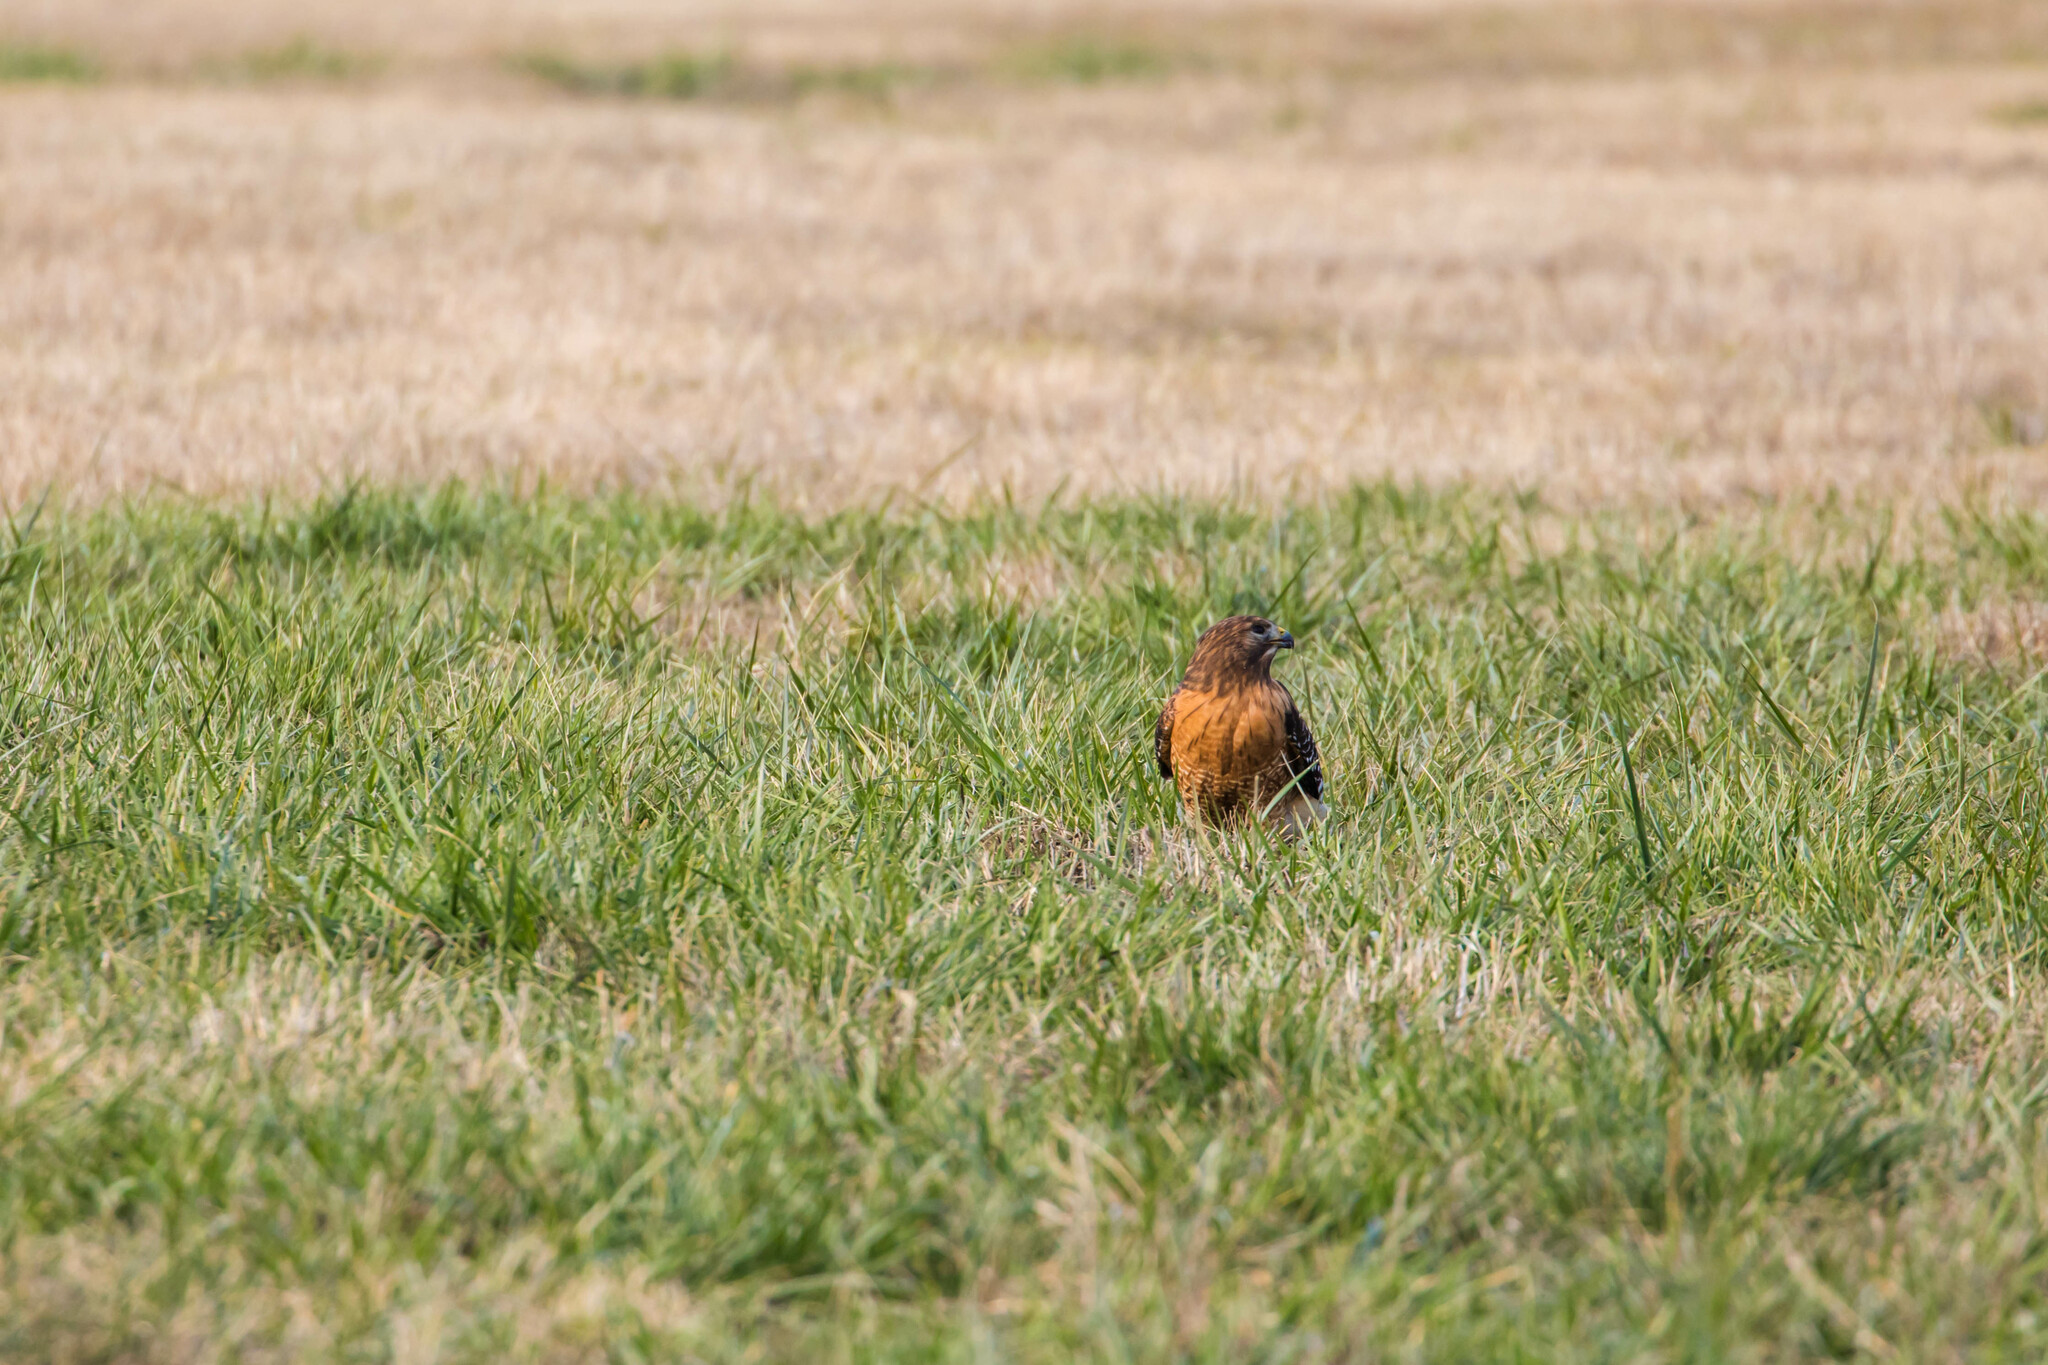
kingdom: Animalia
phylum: Chordata
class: Aves
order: Accipitriformes
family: Accipitridae
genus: Buteo
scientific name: Buteo lineatus
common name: Red-shouldered hawk
